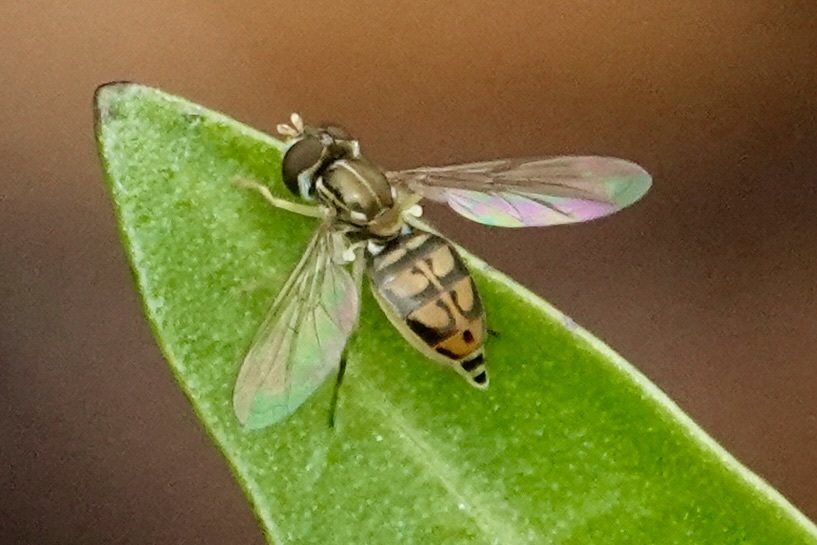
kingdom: Animalia
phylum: Arthropoda
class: Insecta
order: Diptera
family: Syrphidae
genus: Toxomerus
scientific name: Toxomerus marginatus
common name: Syrphid fly
